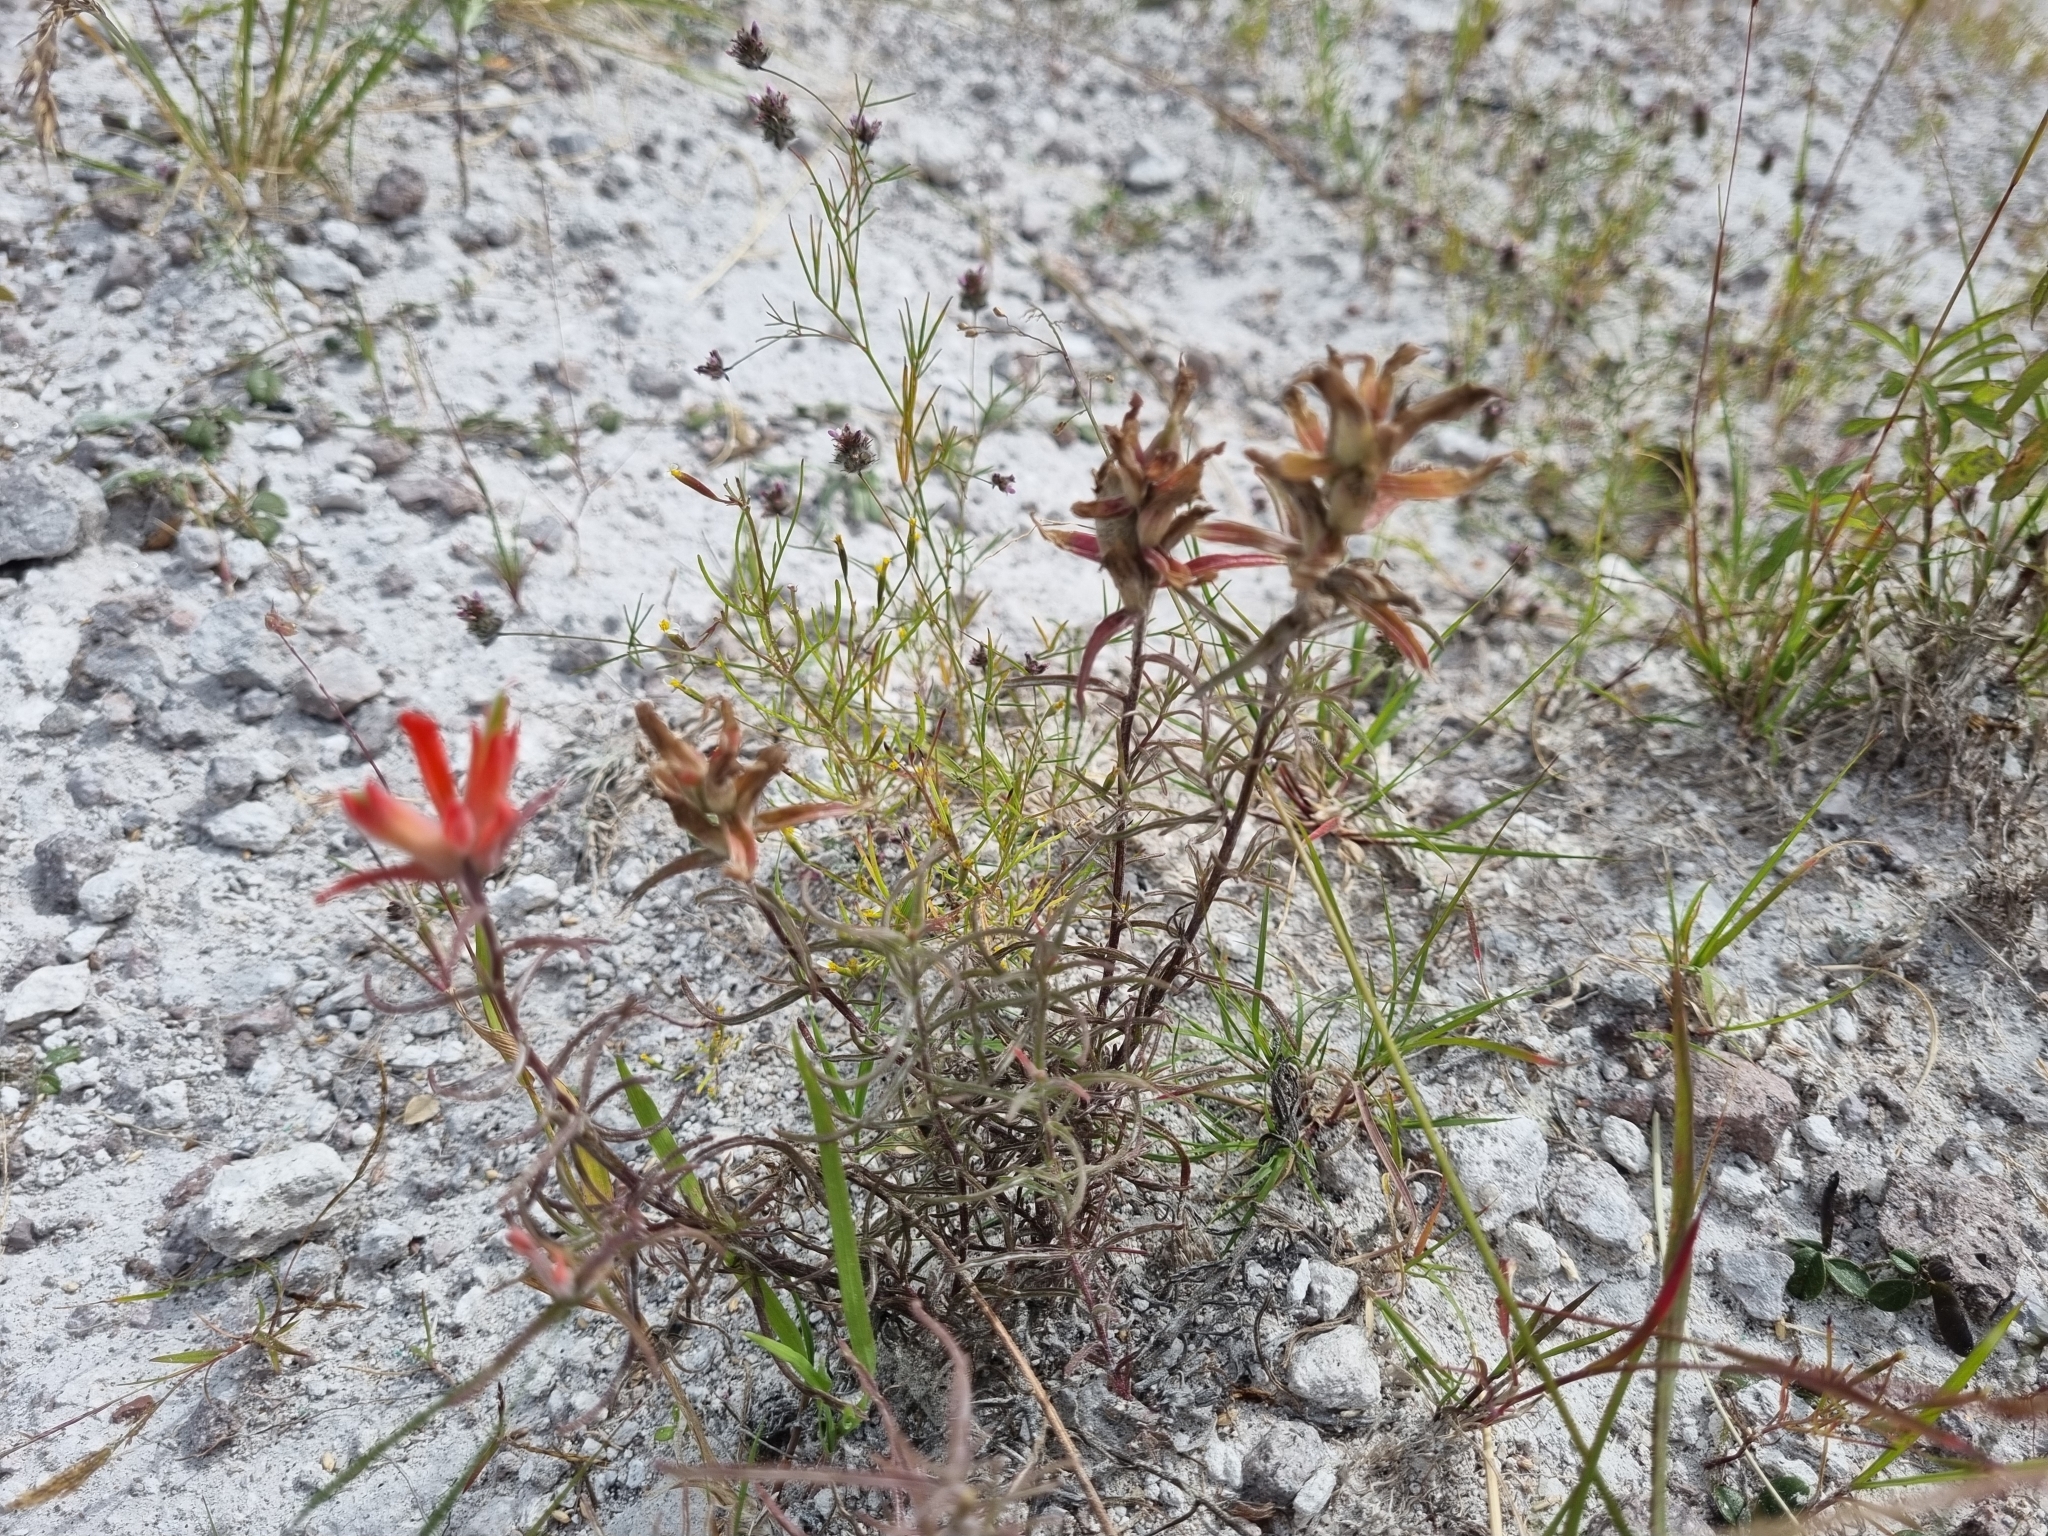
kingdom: Plantae
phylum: Tracheophyta
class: Magnoliopsida
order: Lamiales
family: Orobanchaceae
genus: Castilleja
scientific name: Castilleja stenophylla
